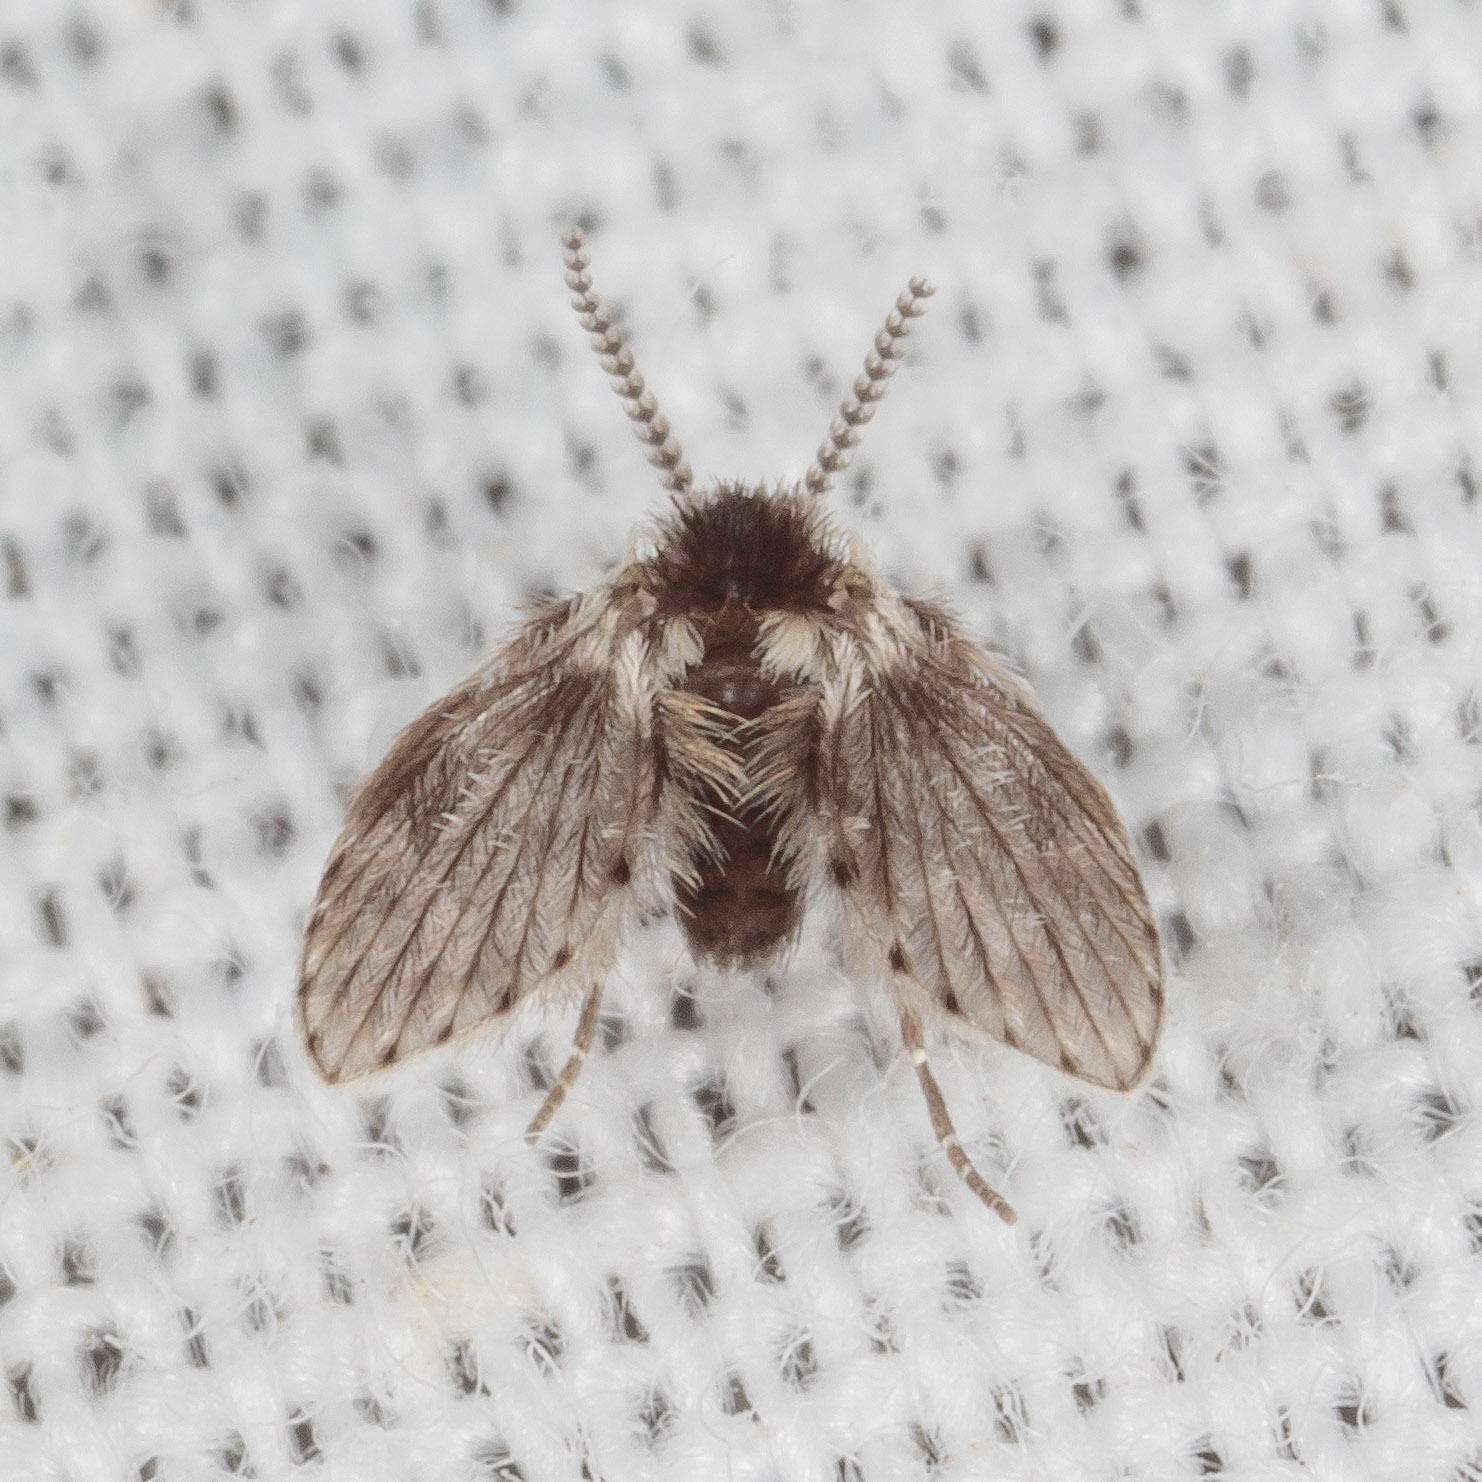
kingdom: Animalia
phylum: Arthropoda
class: Insecta
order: Diptera
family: Psychodidae
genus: Lepiseodina
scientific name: Lepiseodina
